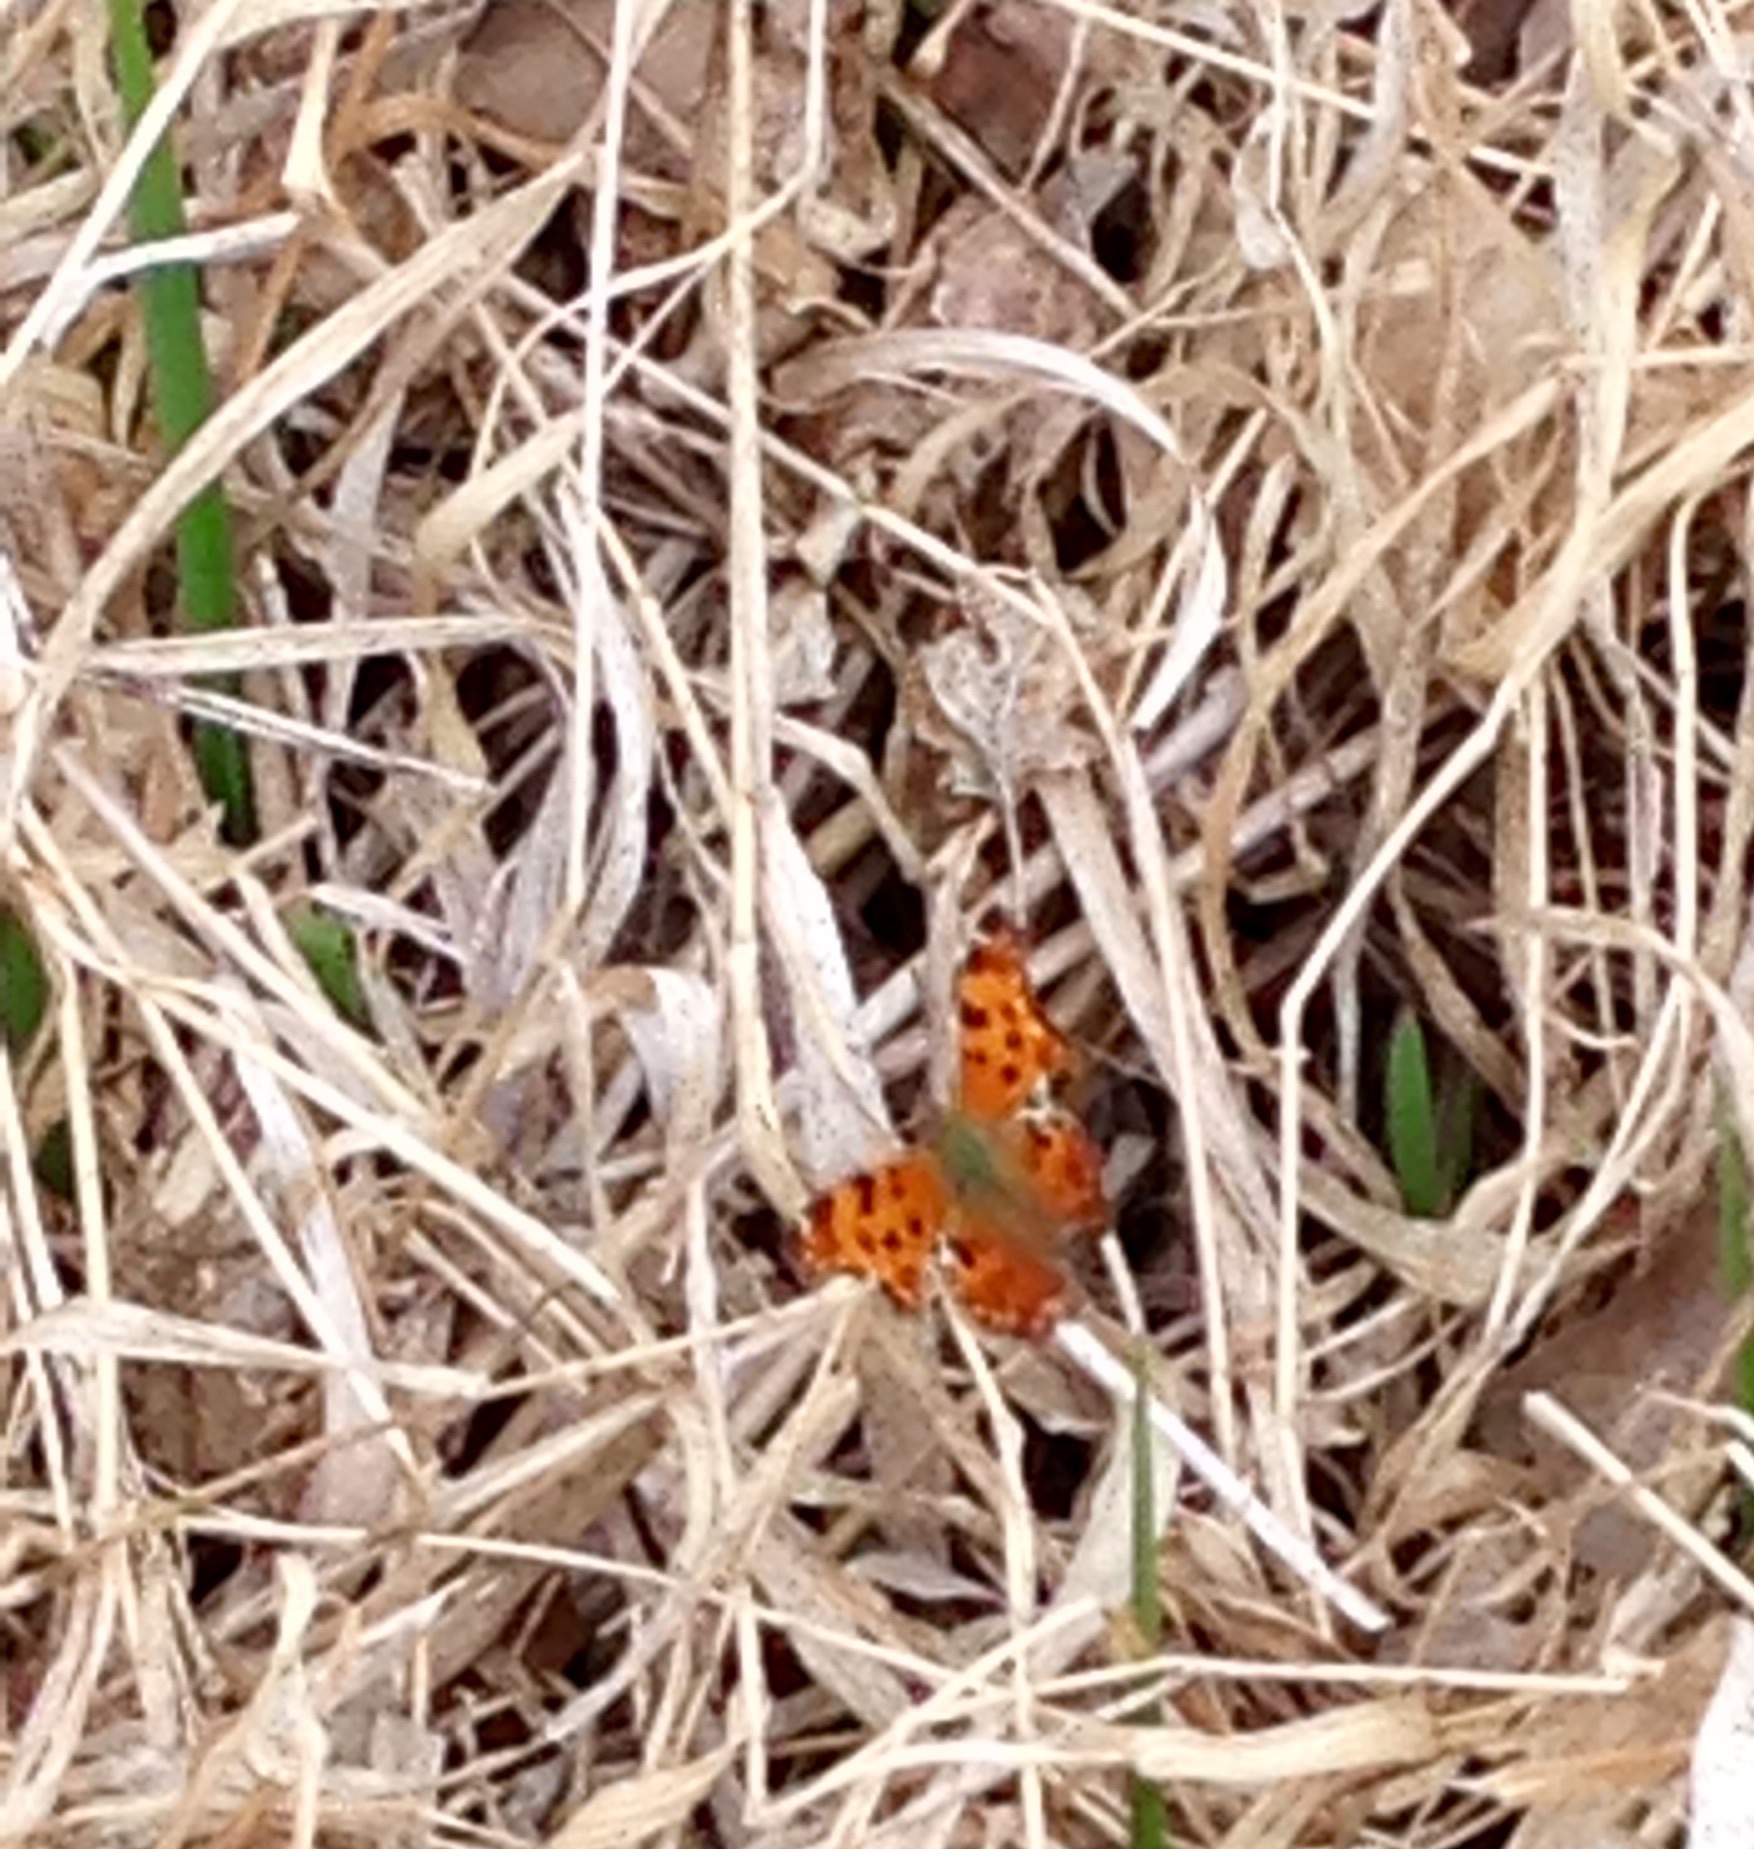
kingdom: Animalia
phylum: Arthropoda
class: Insecta
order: Lepidoptera
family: Nymphalidae
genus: Polygonia
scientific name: Polygonia comma
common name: Eastern comma
